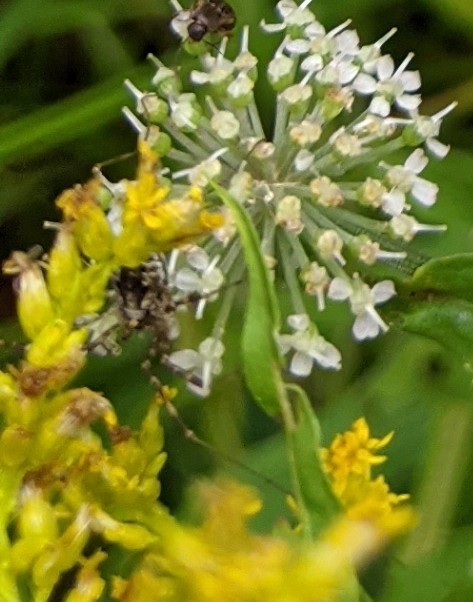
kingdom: Animalia
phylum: Arthropoda
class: Arachnida
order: Opiliones
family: Phalangiidae
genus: Odiellus
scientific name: Odiellus pictus
